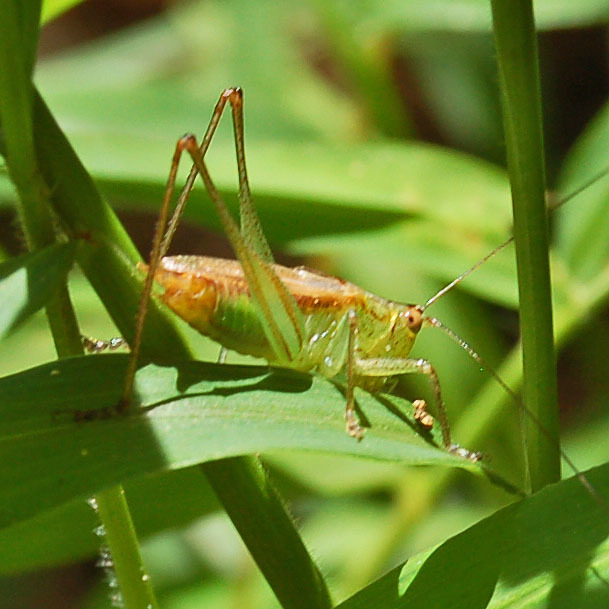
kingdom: Animalia
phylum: Arthropoda
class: Insecta
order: Orthoptera
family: Tettigoniidae
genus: Conocephalus
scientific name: Conocephalus brevipennis
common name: Short-winged meadow katydid
